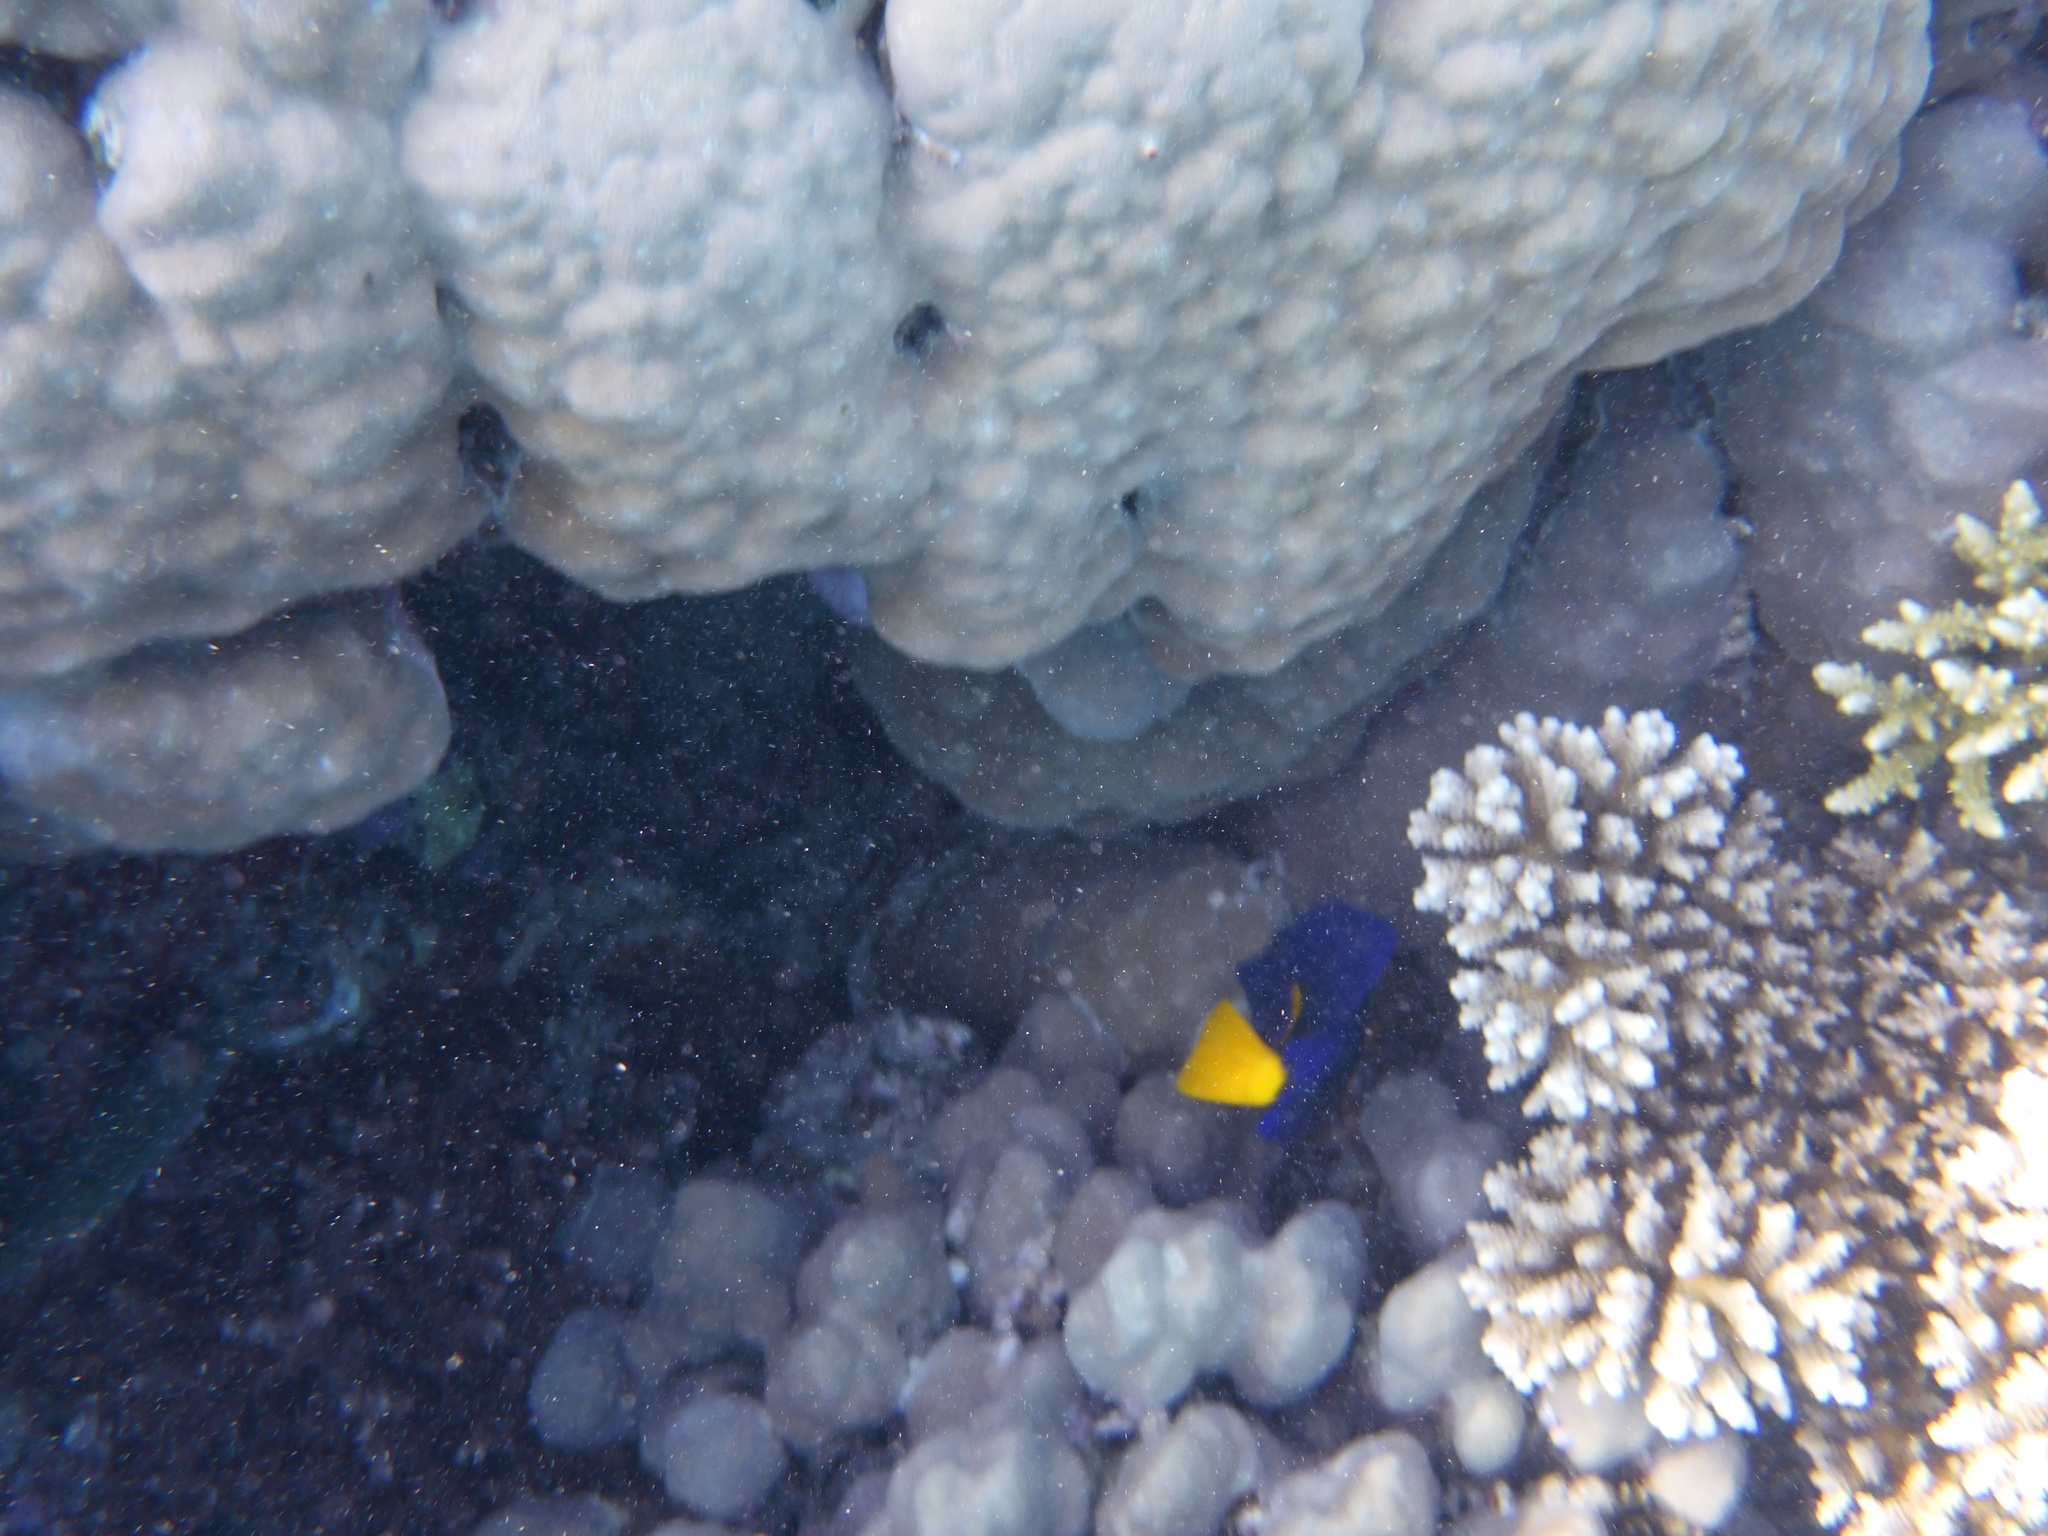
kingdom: Animalia
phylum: Chordata
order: Perciformes
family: Acanthuridae
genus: Zebrasoma
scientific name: Zebrasoma xanthurum
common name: Purple tang
